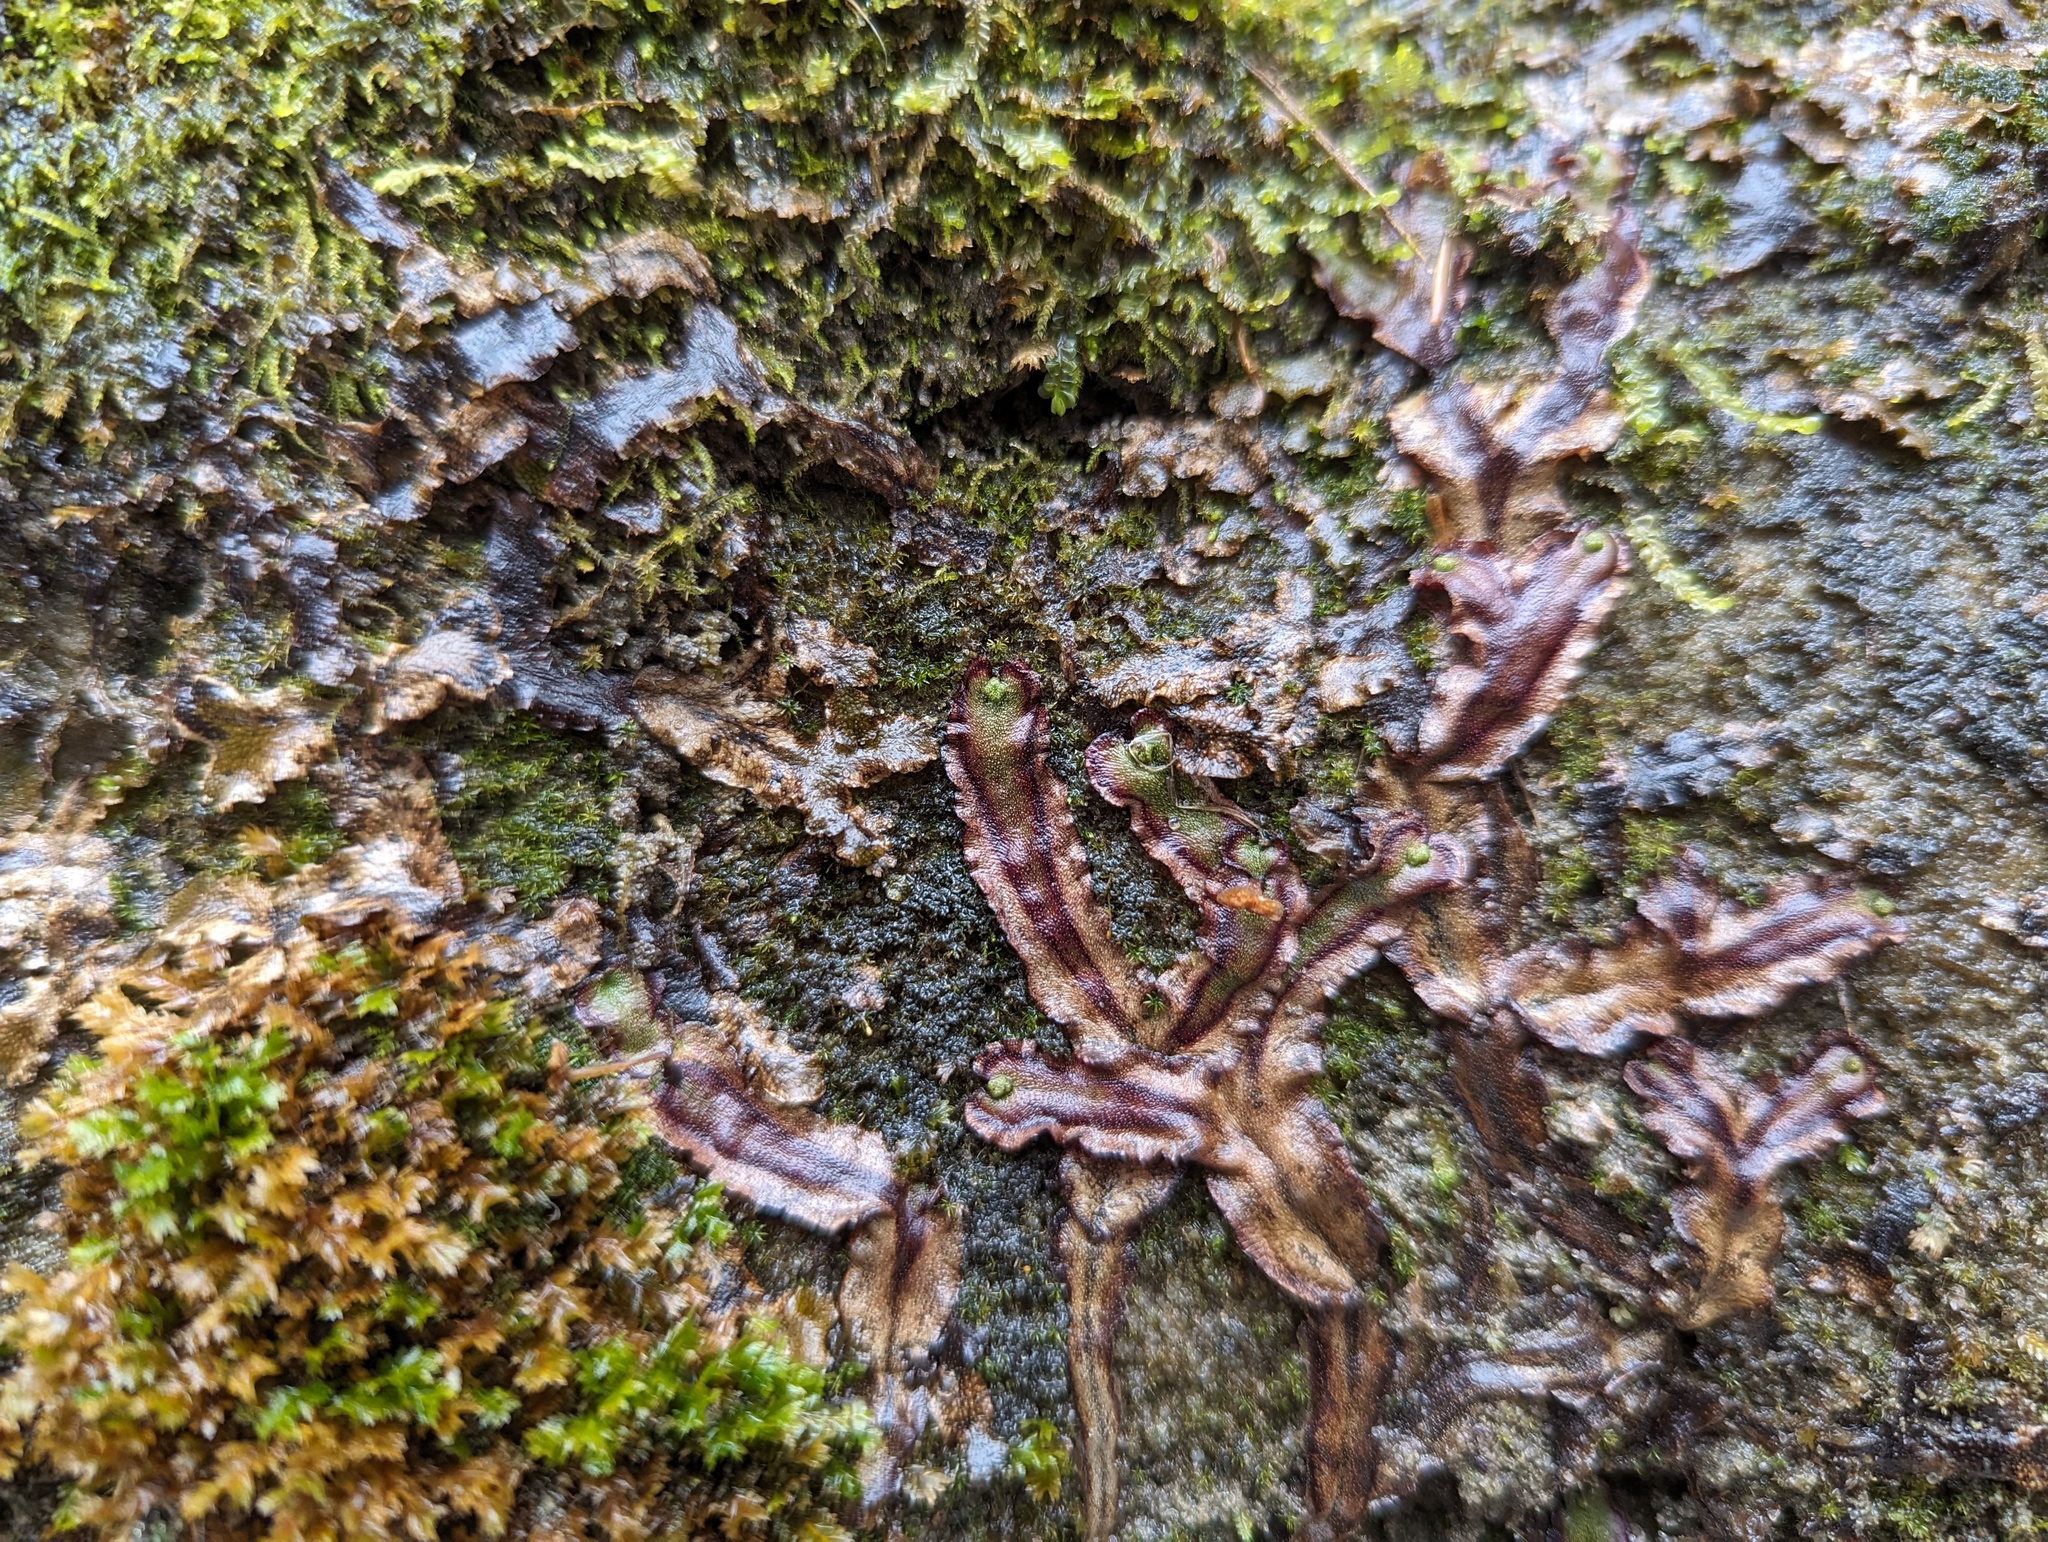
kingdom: Plantae
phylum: Marchantiophyta
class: Marchantiopsida
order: Marchantiales
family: Marchantiaceae
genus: Marchantia
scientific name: Marchantia quadrata
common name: Narrow mushroom-headed liverwort
